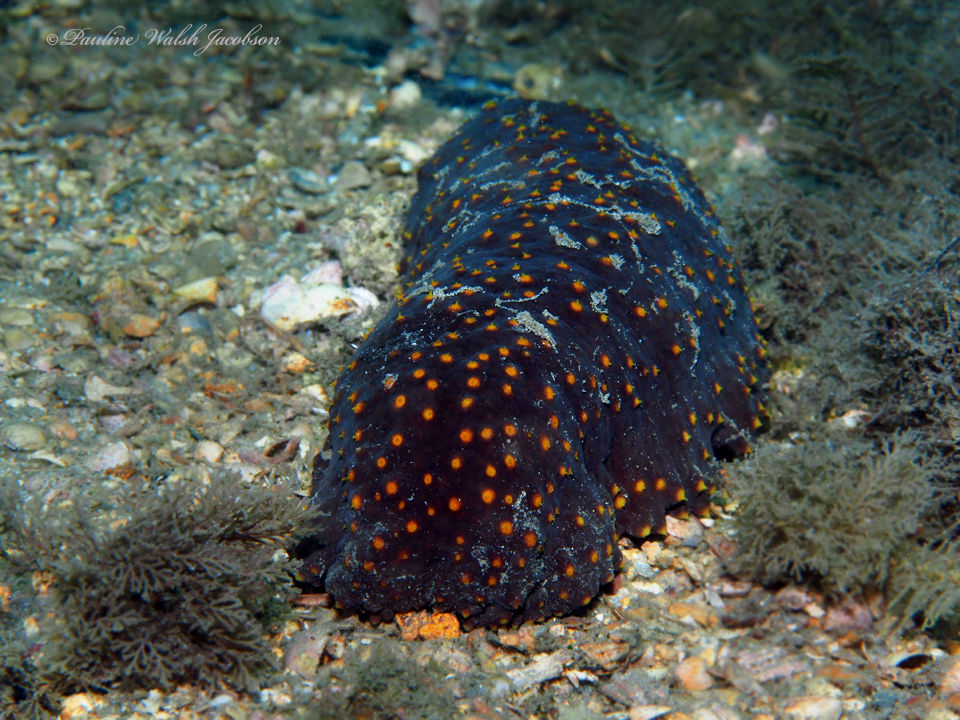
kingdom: Animalia
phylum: Echinodermata
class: Holothuroidea
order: Synallactida
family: Stichopodidae
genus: Isostichopus
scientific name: Isostichopus badionotus
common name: Chocolate chip cucumber
